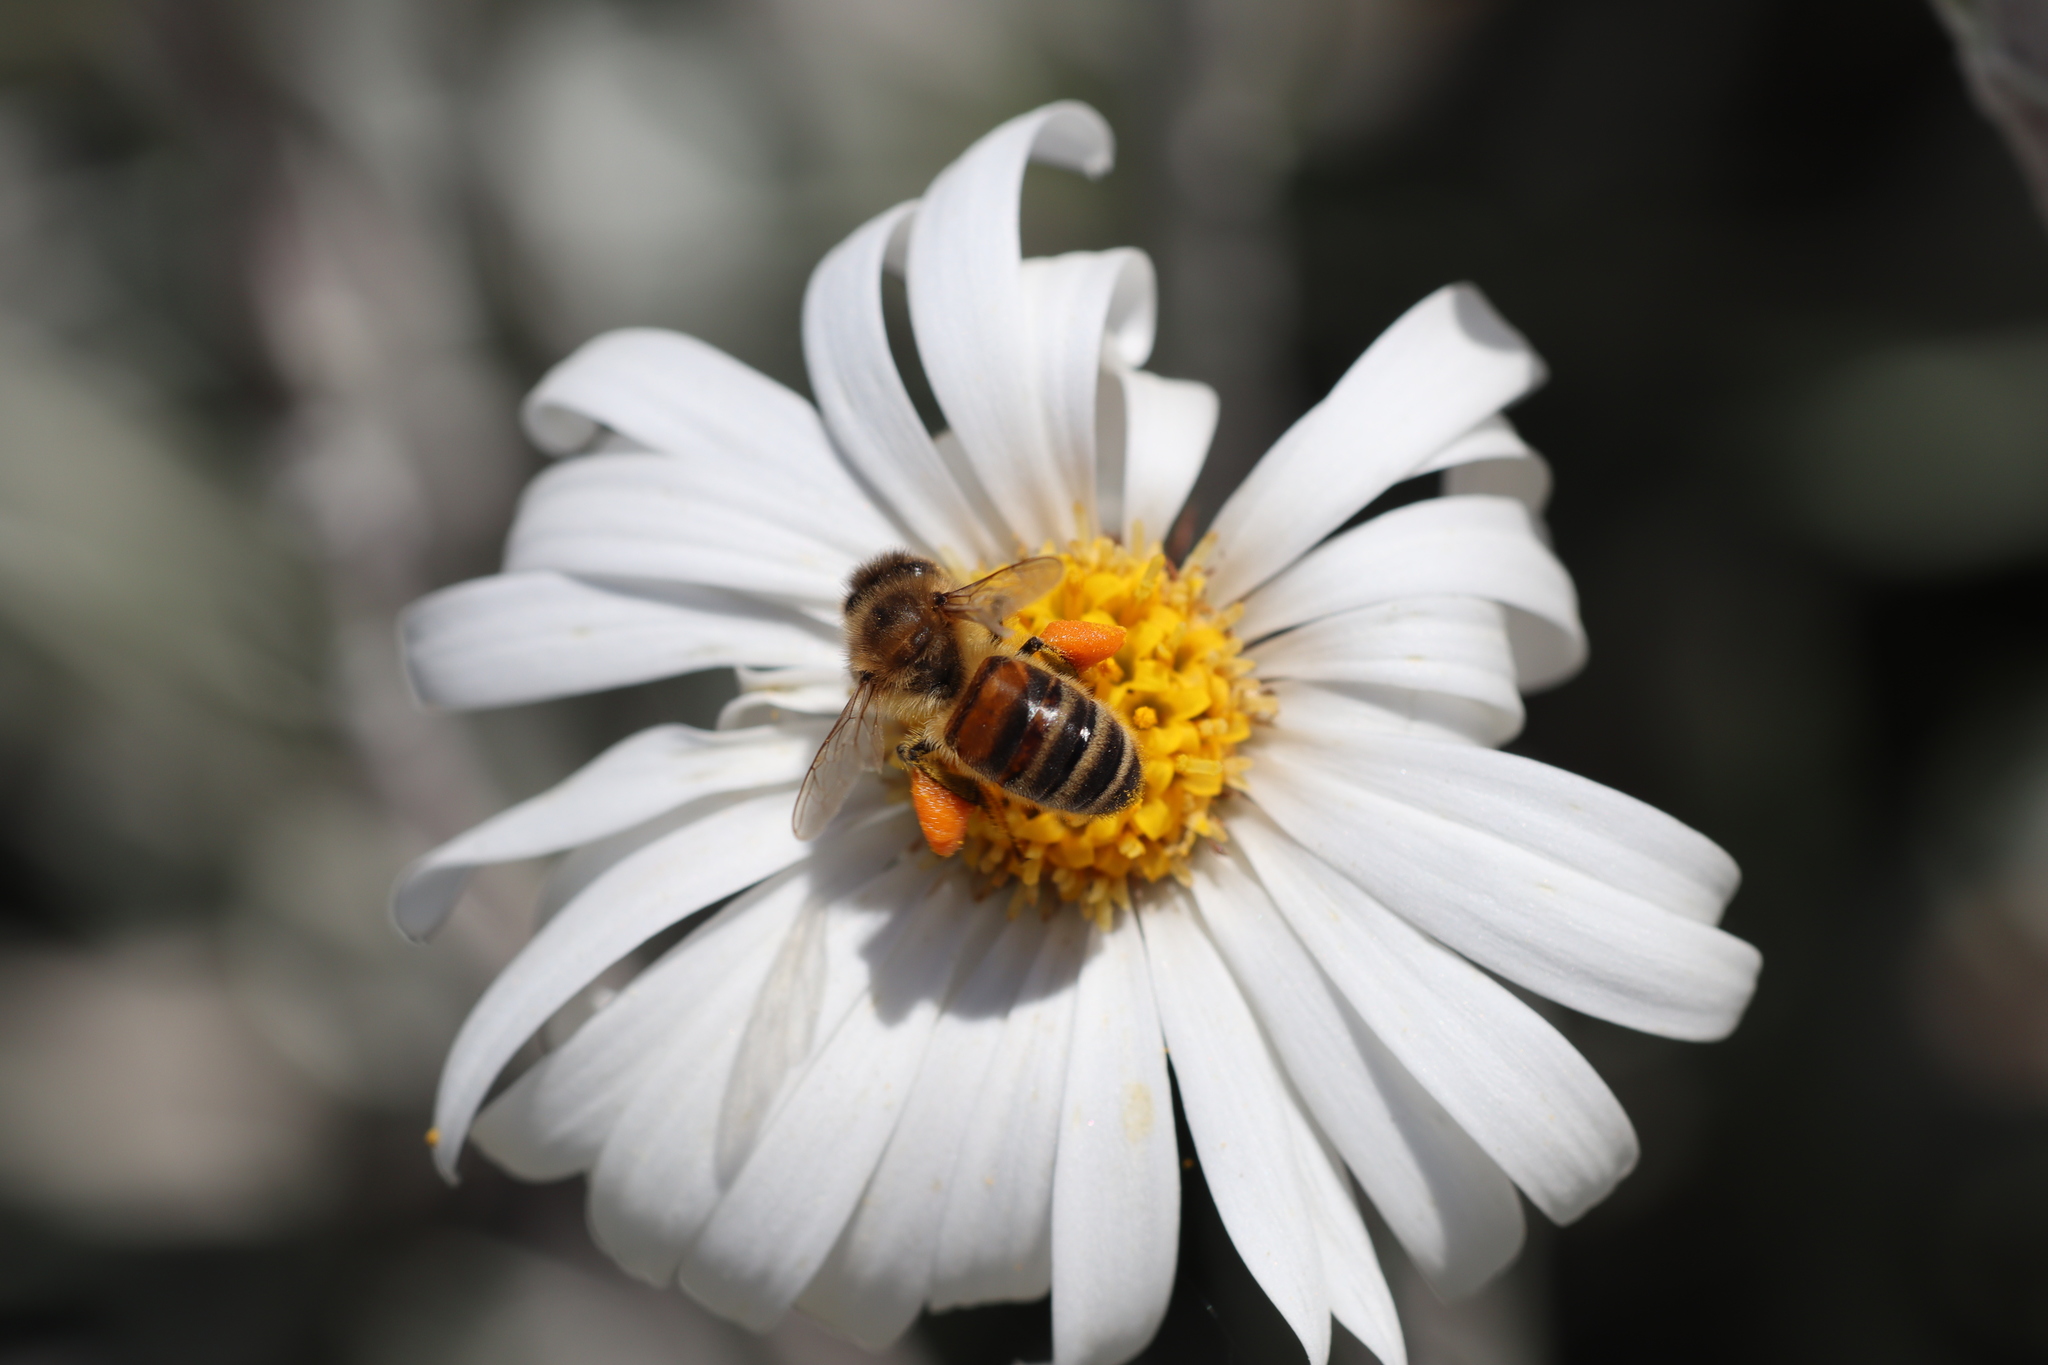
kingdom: Animalia
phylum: Arthropoda
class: Insecta
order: Hymenoptera
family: Apidae
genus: Apis
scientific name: Apis mellifera
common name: Honey bee
